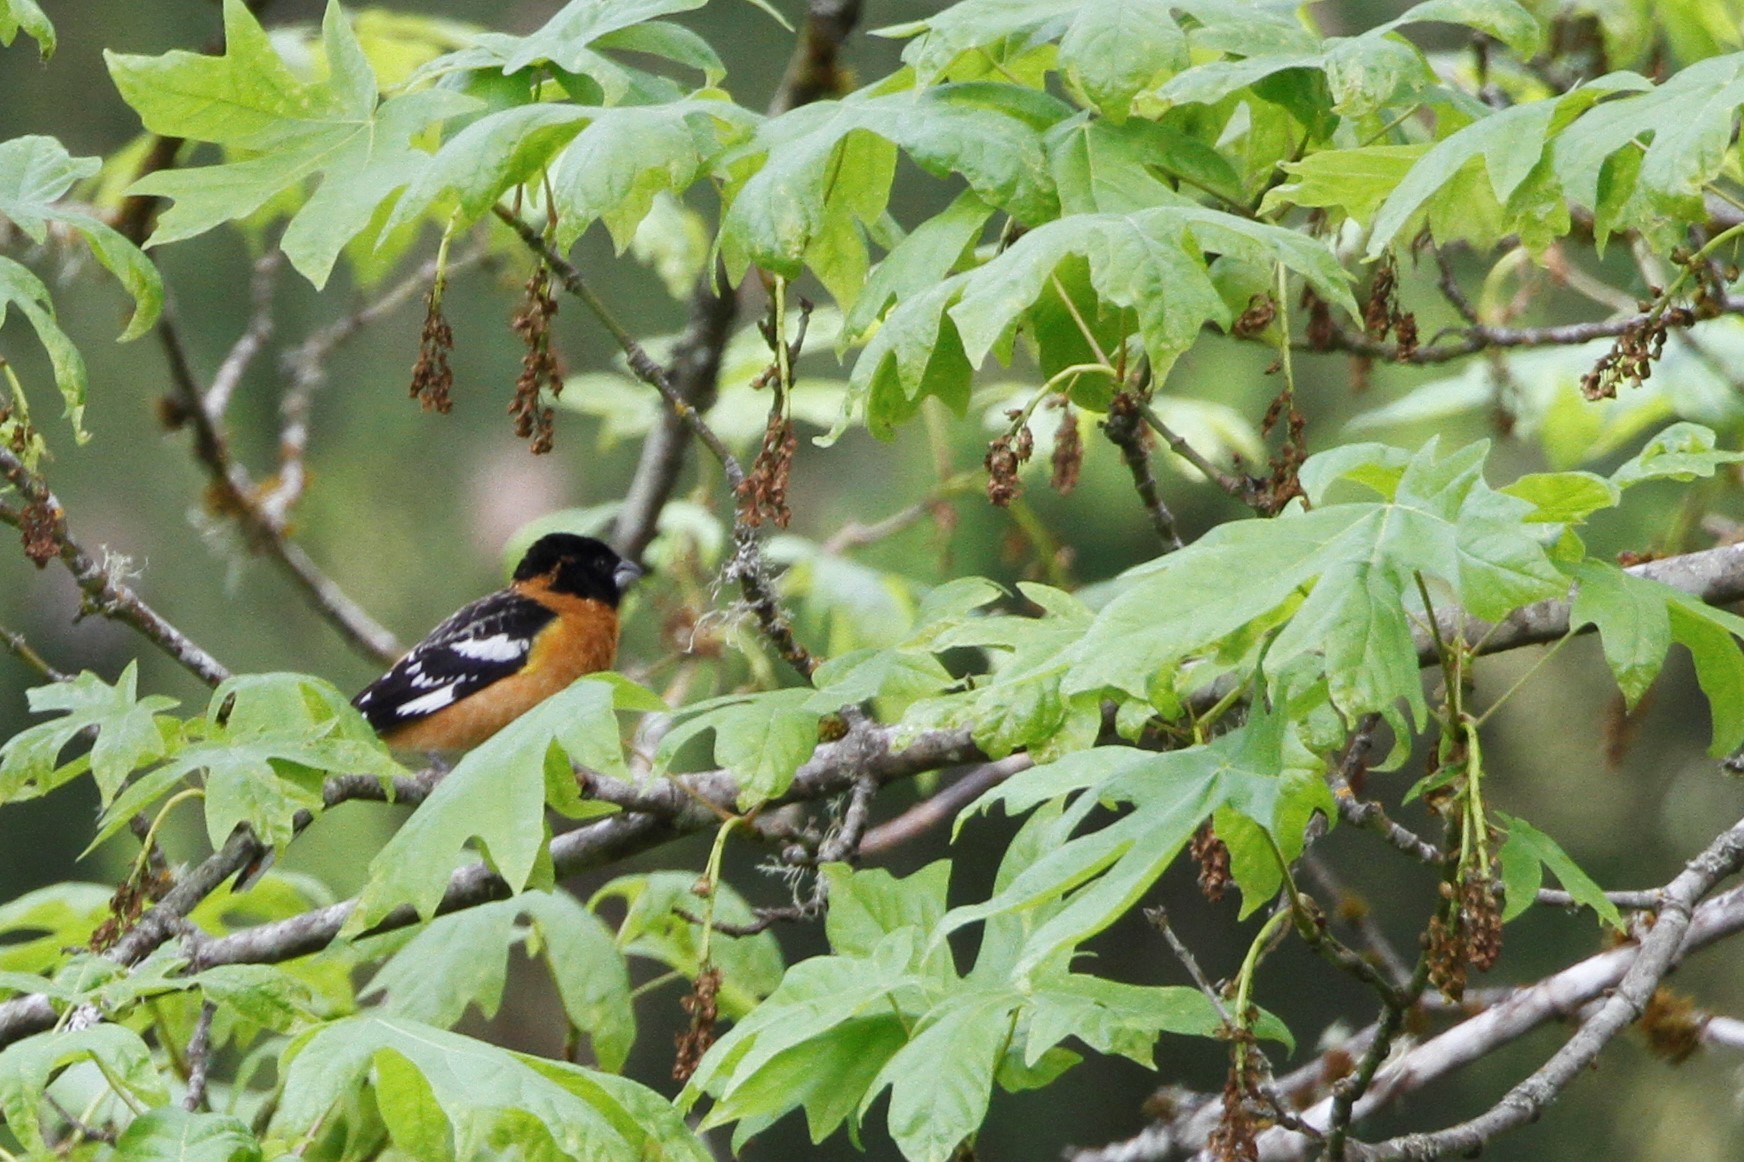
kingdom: Animalia
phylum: Chordata
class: Aves
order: Passeriformes
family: Cardinalidae
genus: Pheucticus
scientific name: Pheucticus melanocephalus
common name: Black-headed grosbeak
